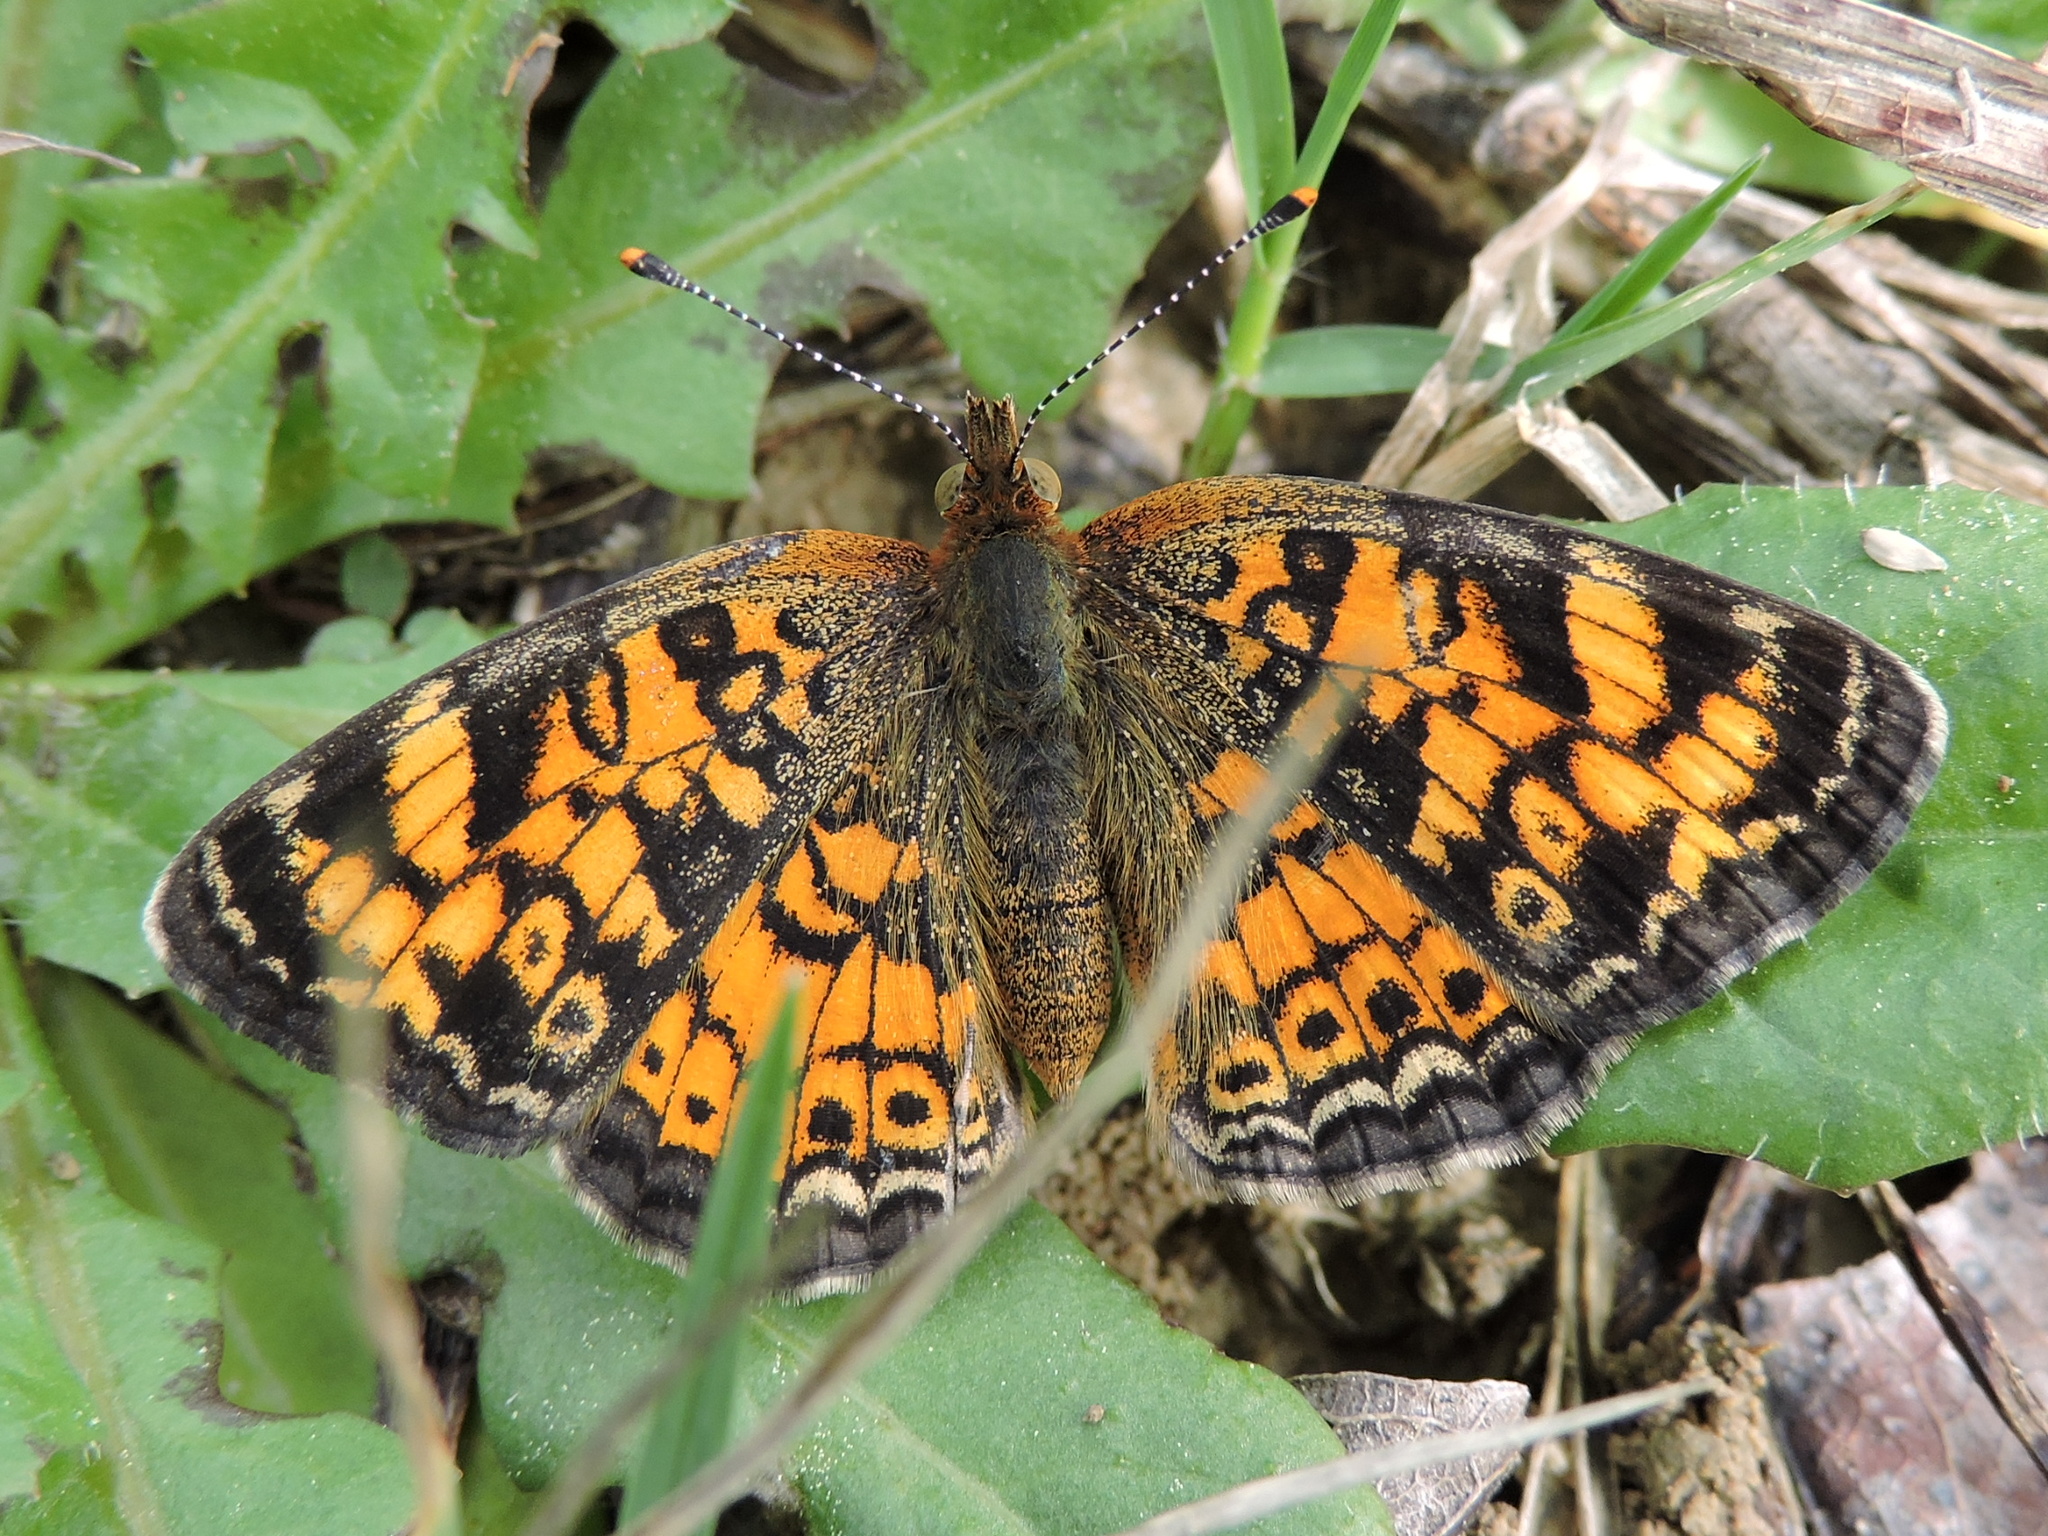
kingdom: Animalia
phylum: Arthropoda
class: Insecta
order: Lepidoptera
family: Nymphalidae
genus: Phyciodes
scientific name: Phyciodes tharos
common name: Pearl crescent
